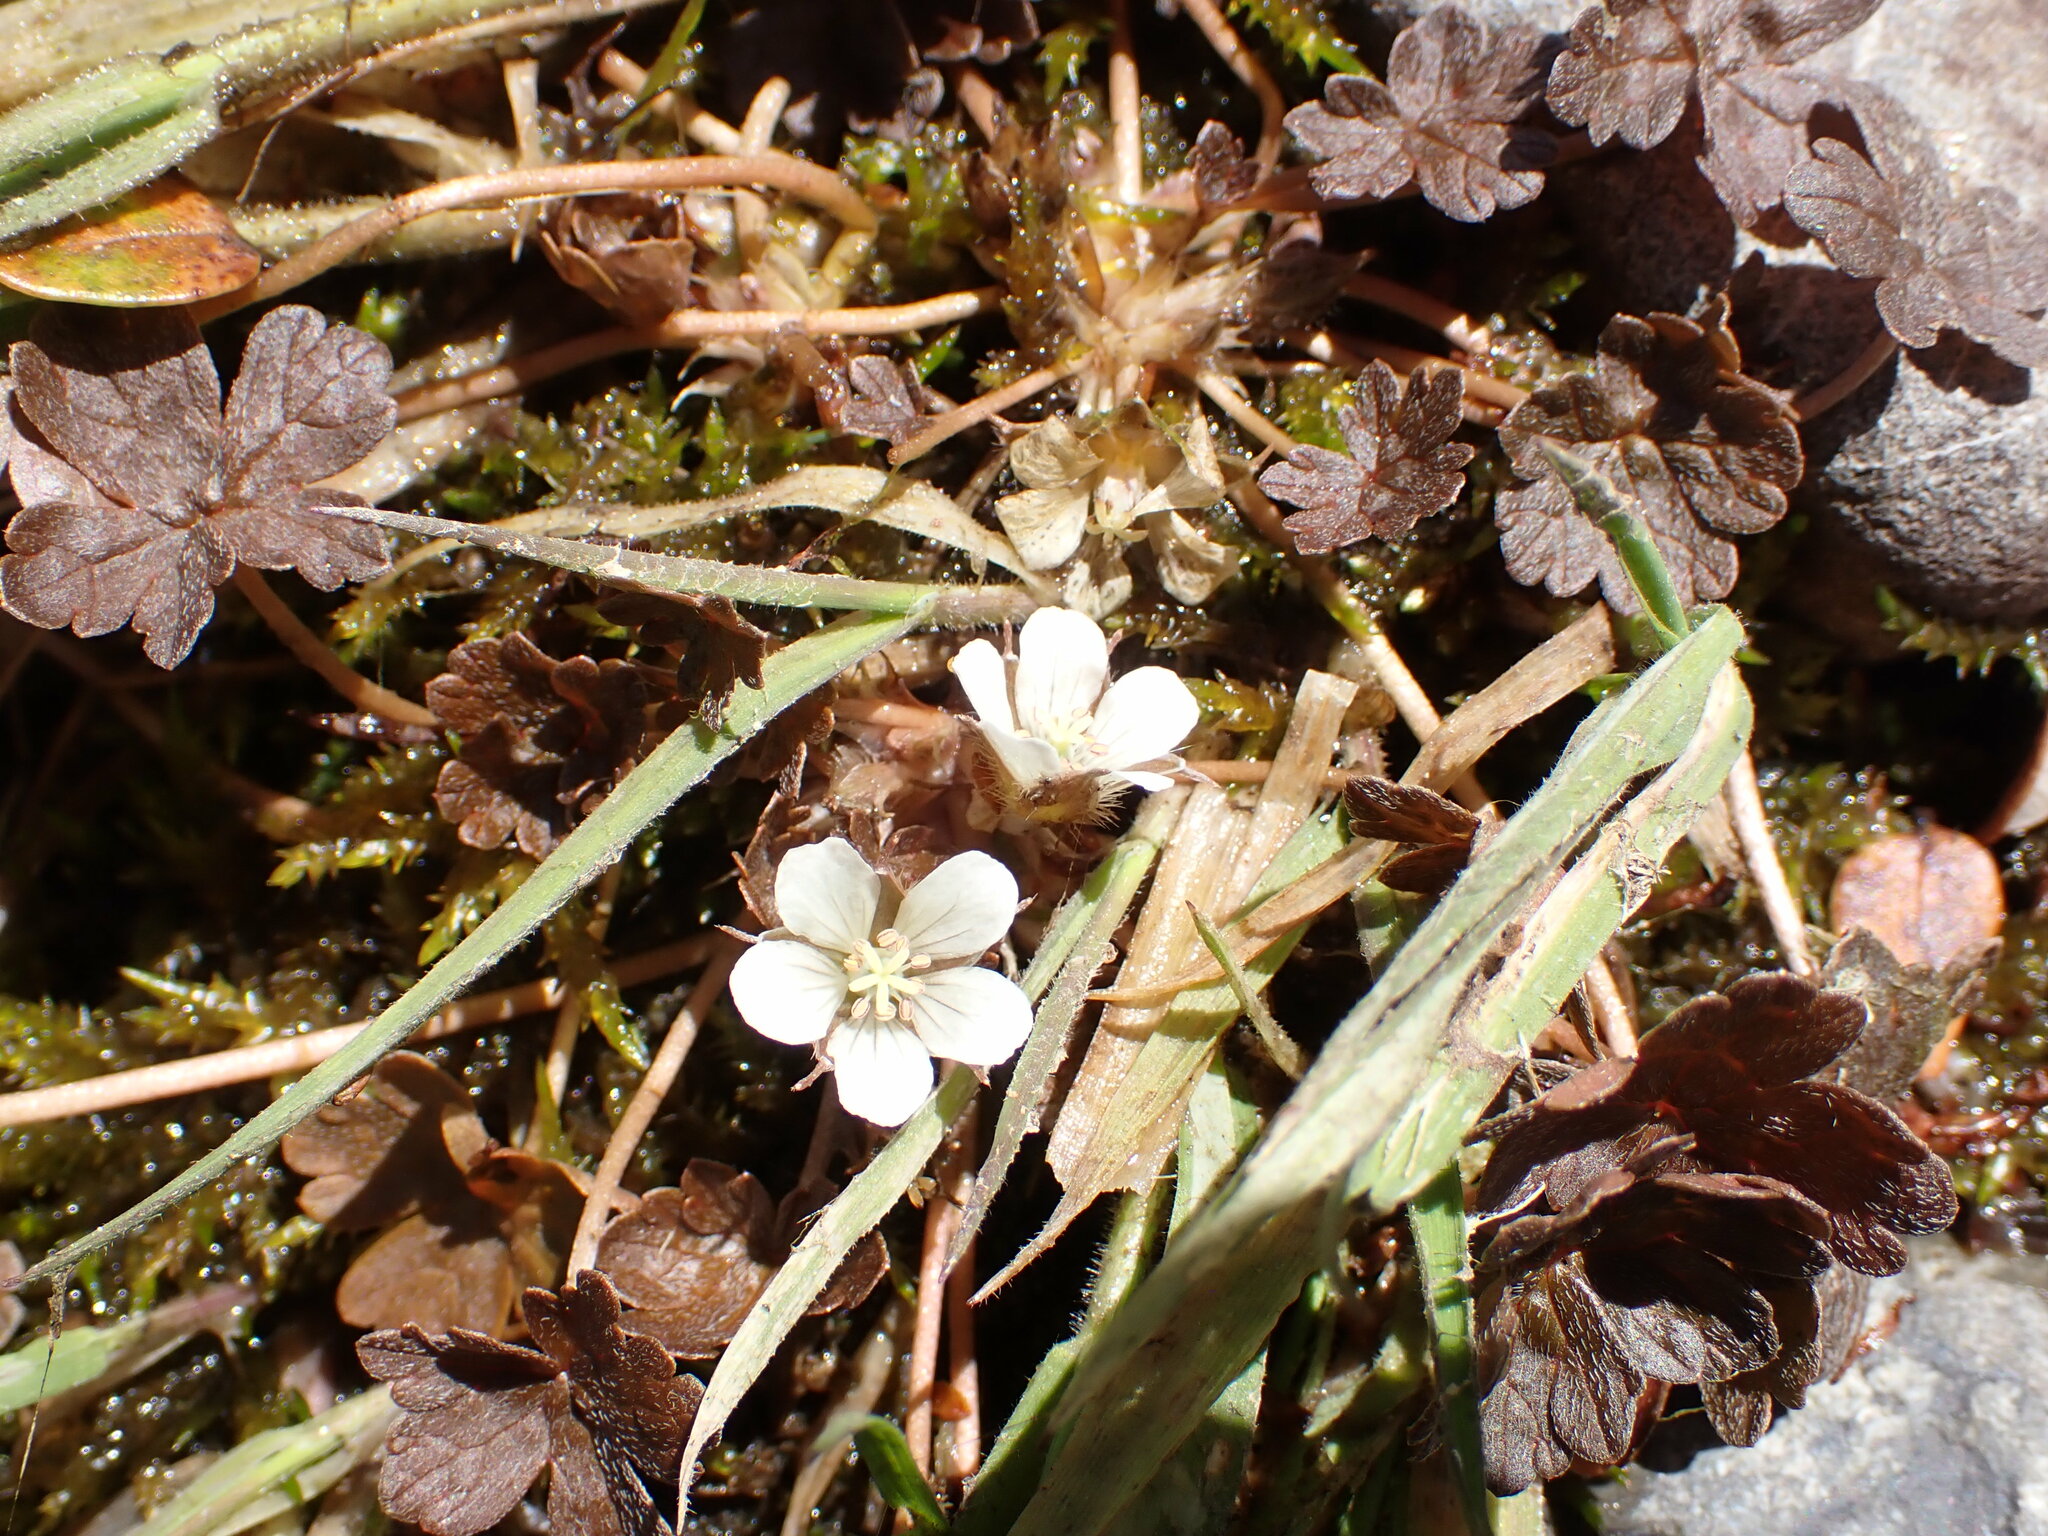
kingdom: Plantae
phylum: Tracheophyta
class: Magnoliopsida
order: Geraniales
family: Geraniaceae
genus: Geranium
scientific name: Geranium brevicaule
